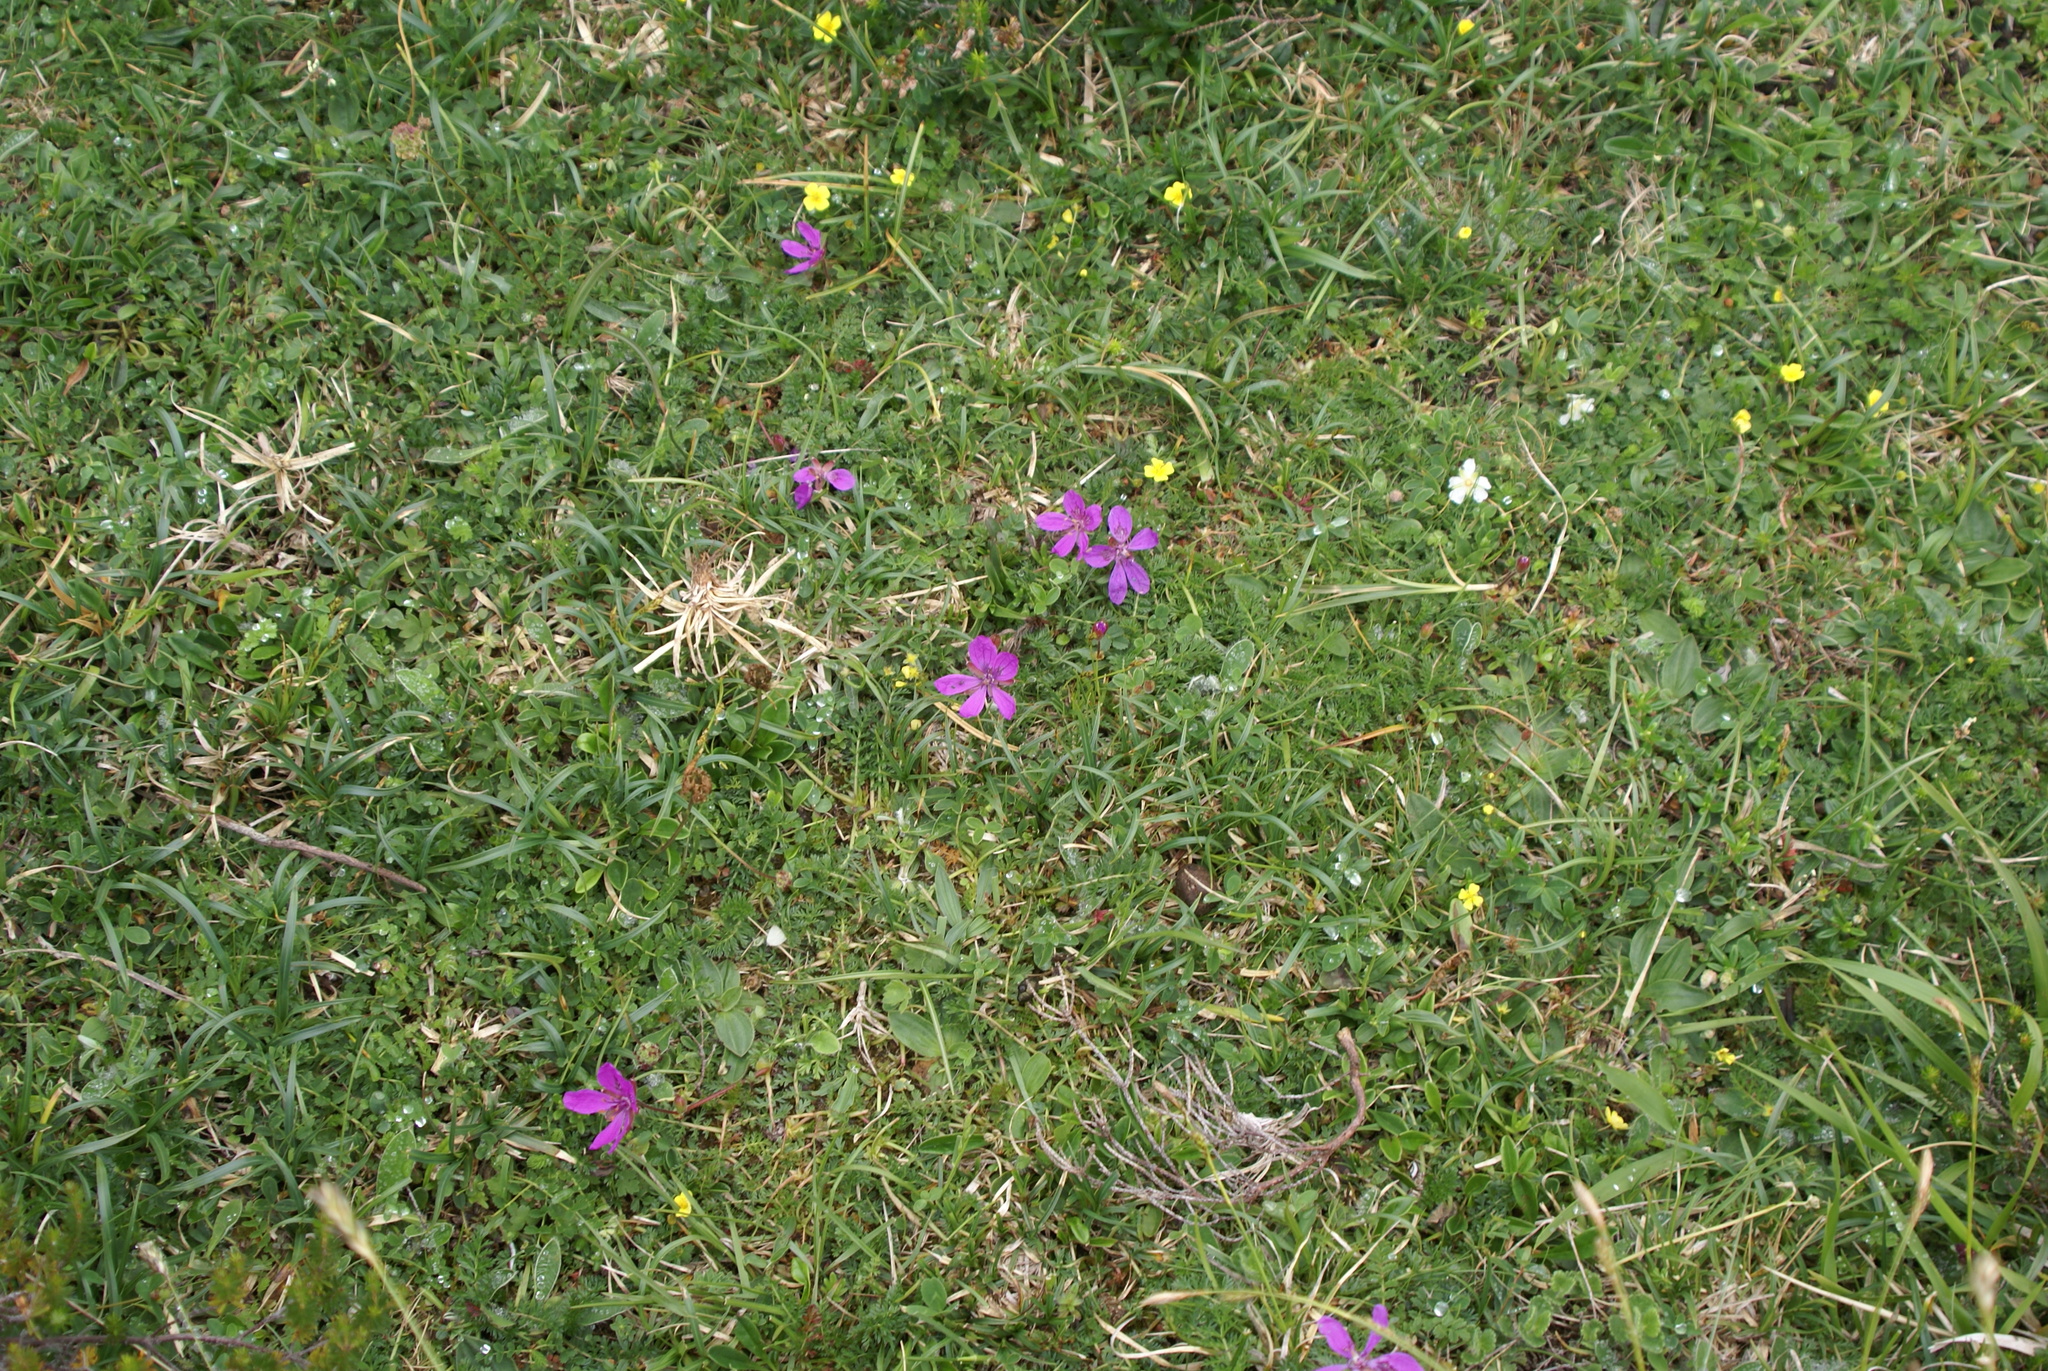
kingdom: Plantae
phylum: Tracheophyta
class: Magnoliopsida
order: Geraniales
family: Geraniaceae
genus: Erodium
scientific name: Erodium cicutarium
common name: Common stork's-bill
